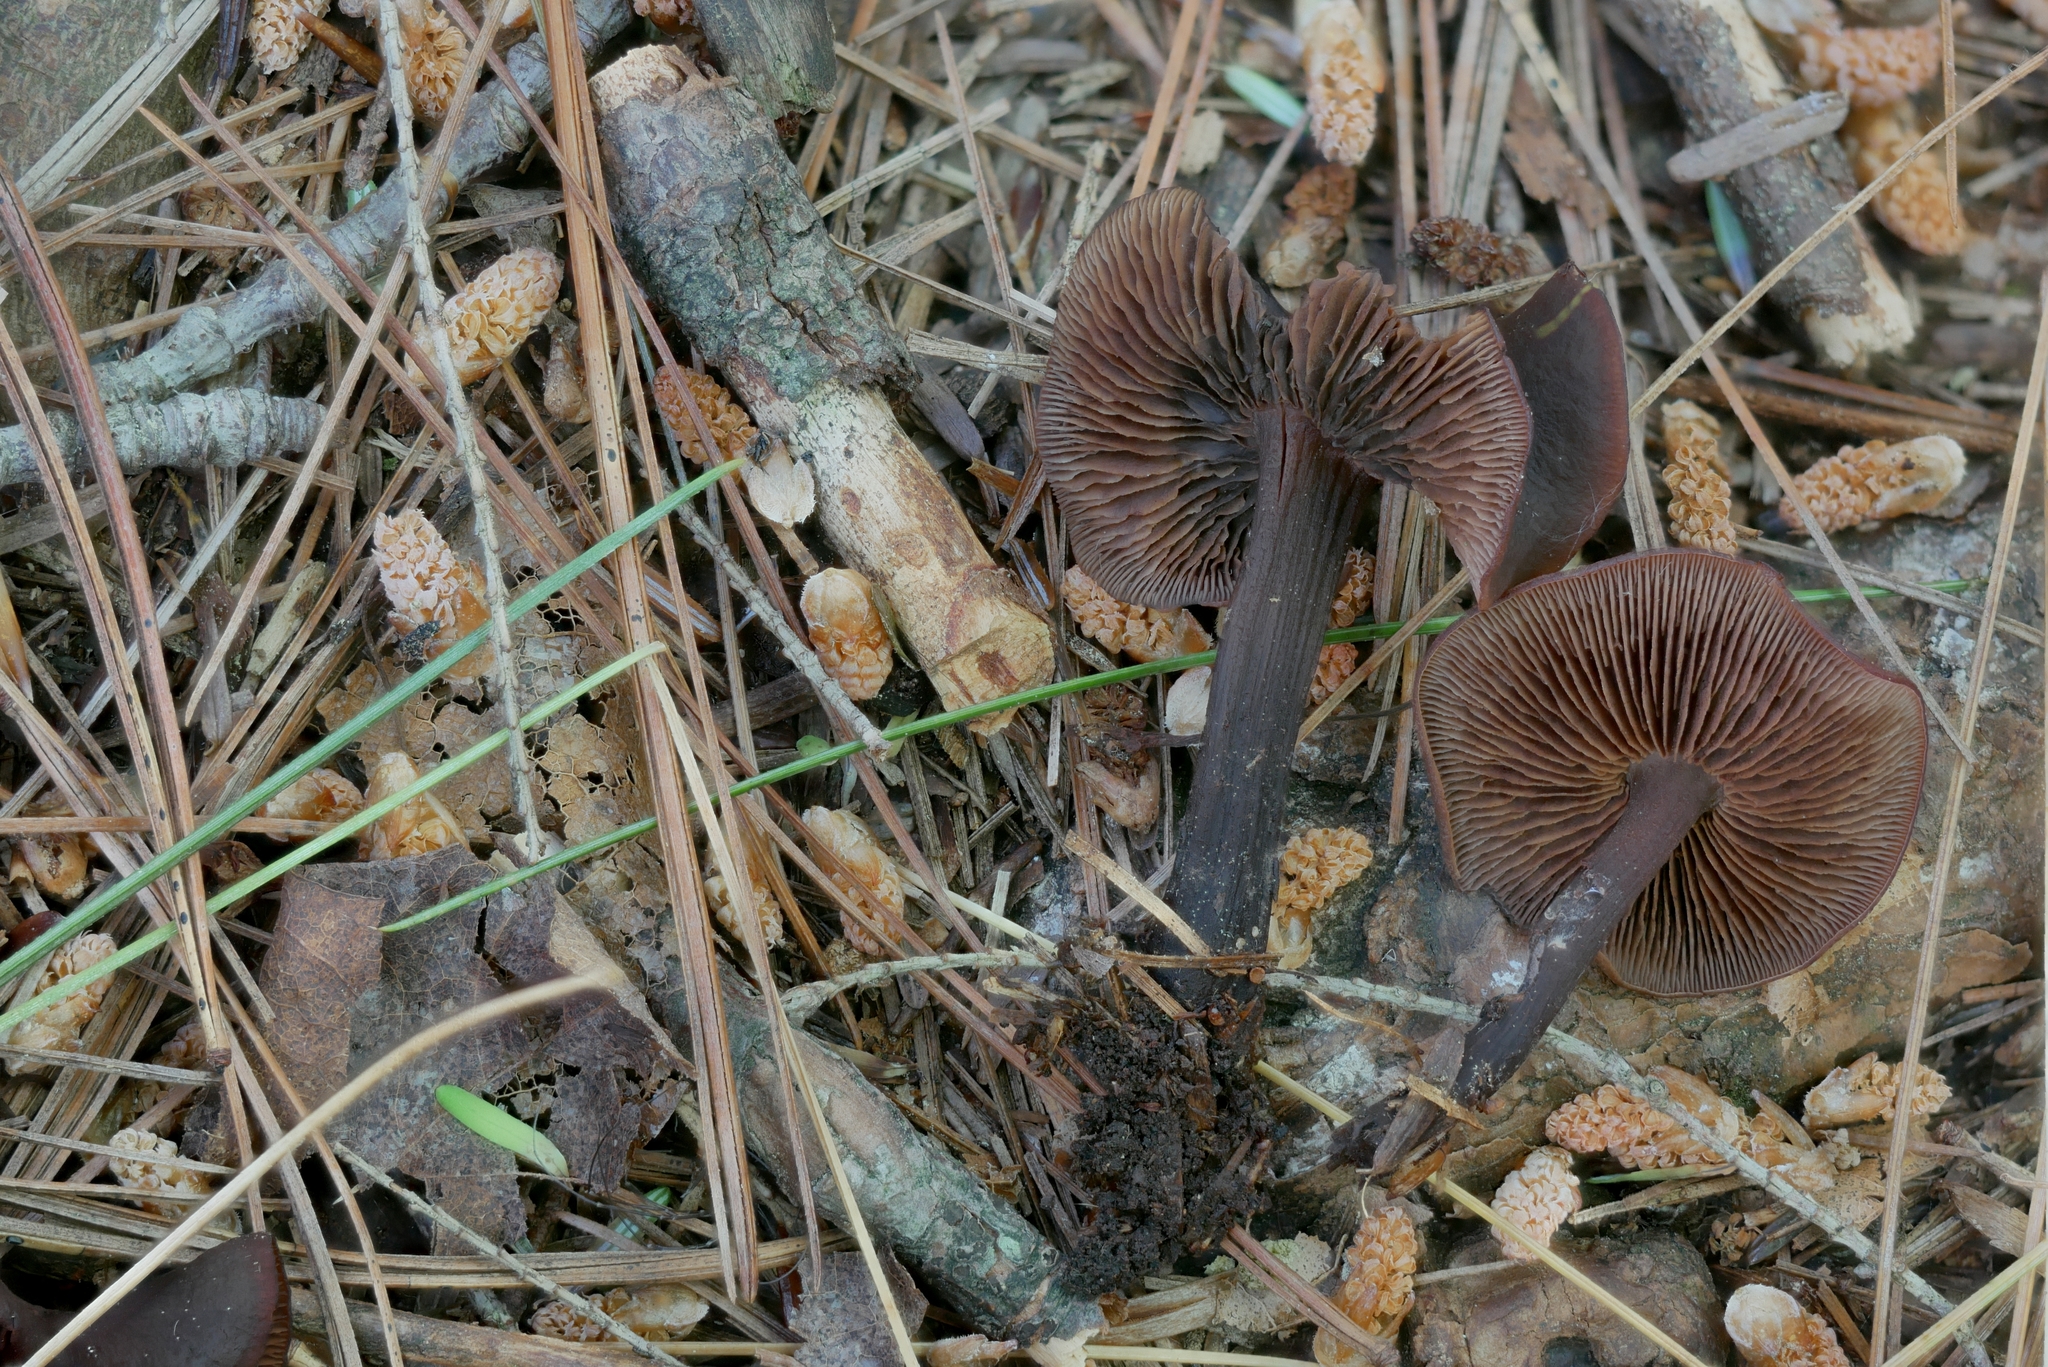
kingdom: Fungi
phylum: Basidiomycota
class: Agaricomycetes
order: Agaricales
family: Omphalotaceae
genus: Gymnopus
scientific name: Gymnopus alkalivirens
